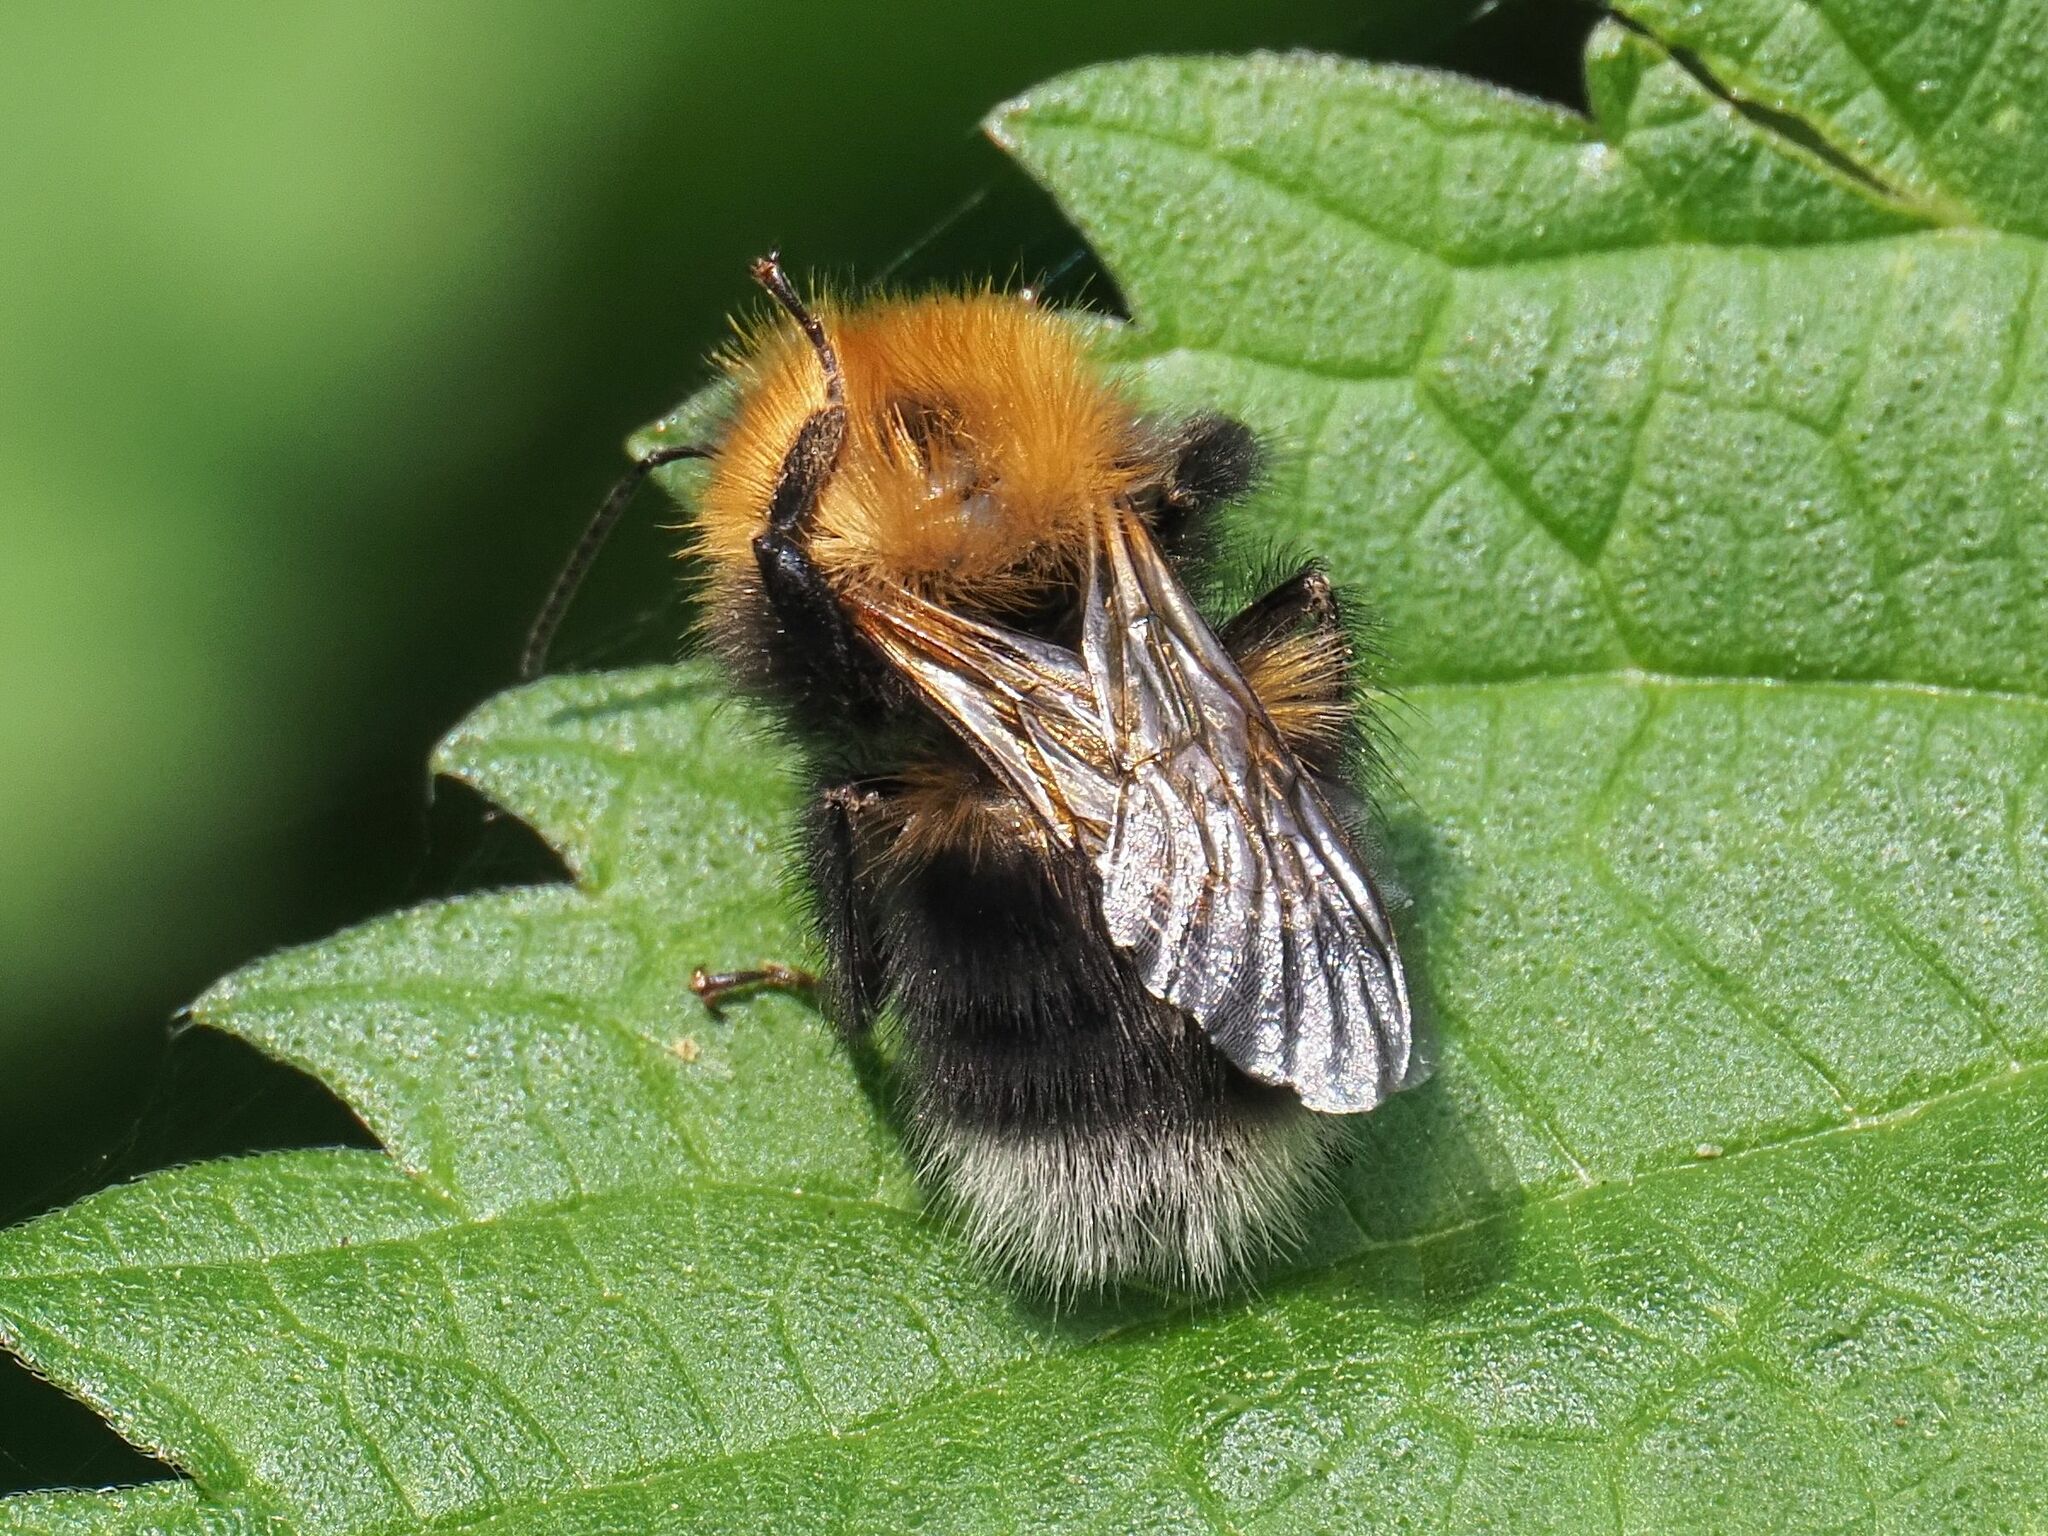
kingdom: Animalia
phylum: Arthropoda
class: Insecta
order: Hymenoptera
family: Apidae
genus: Bombus
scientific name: Bombus hypnorum
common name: New garden bumblebee
